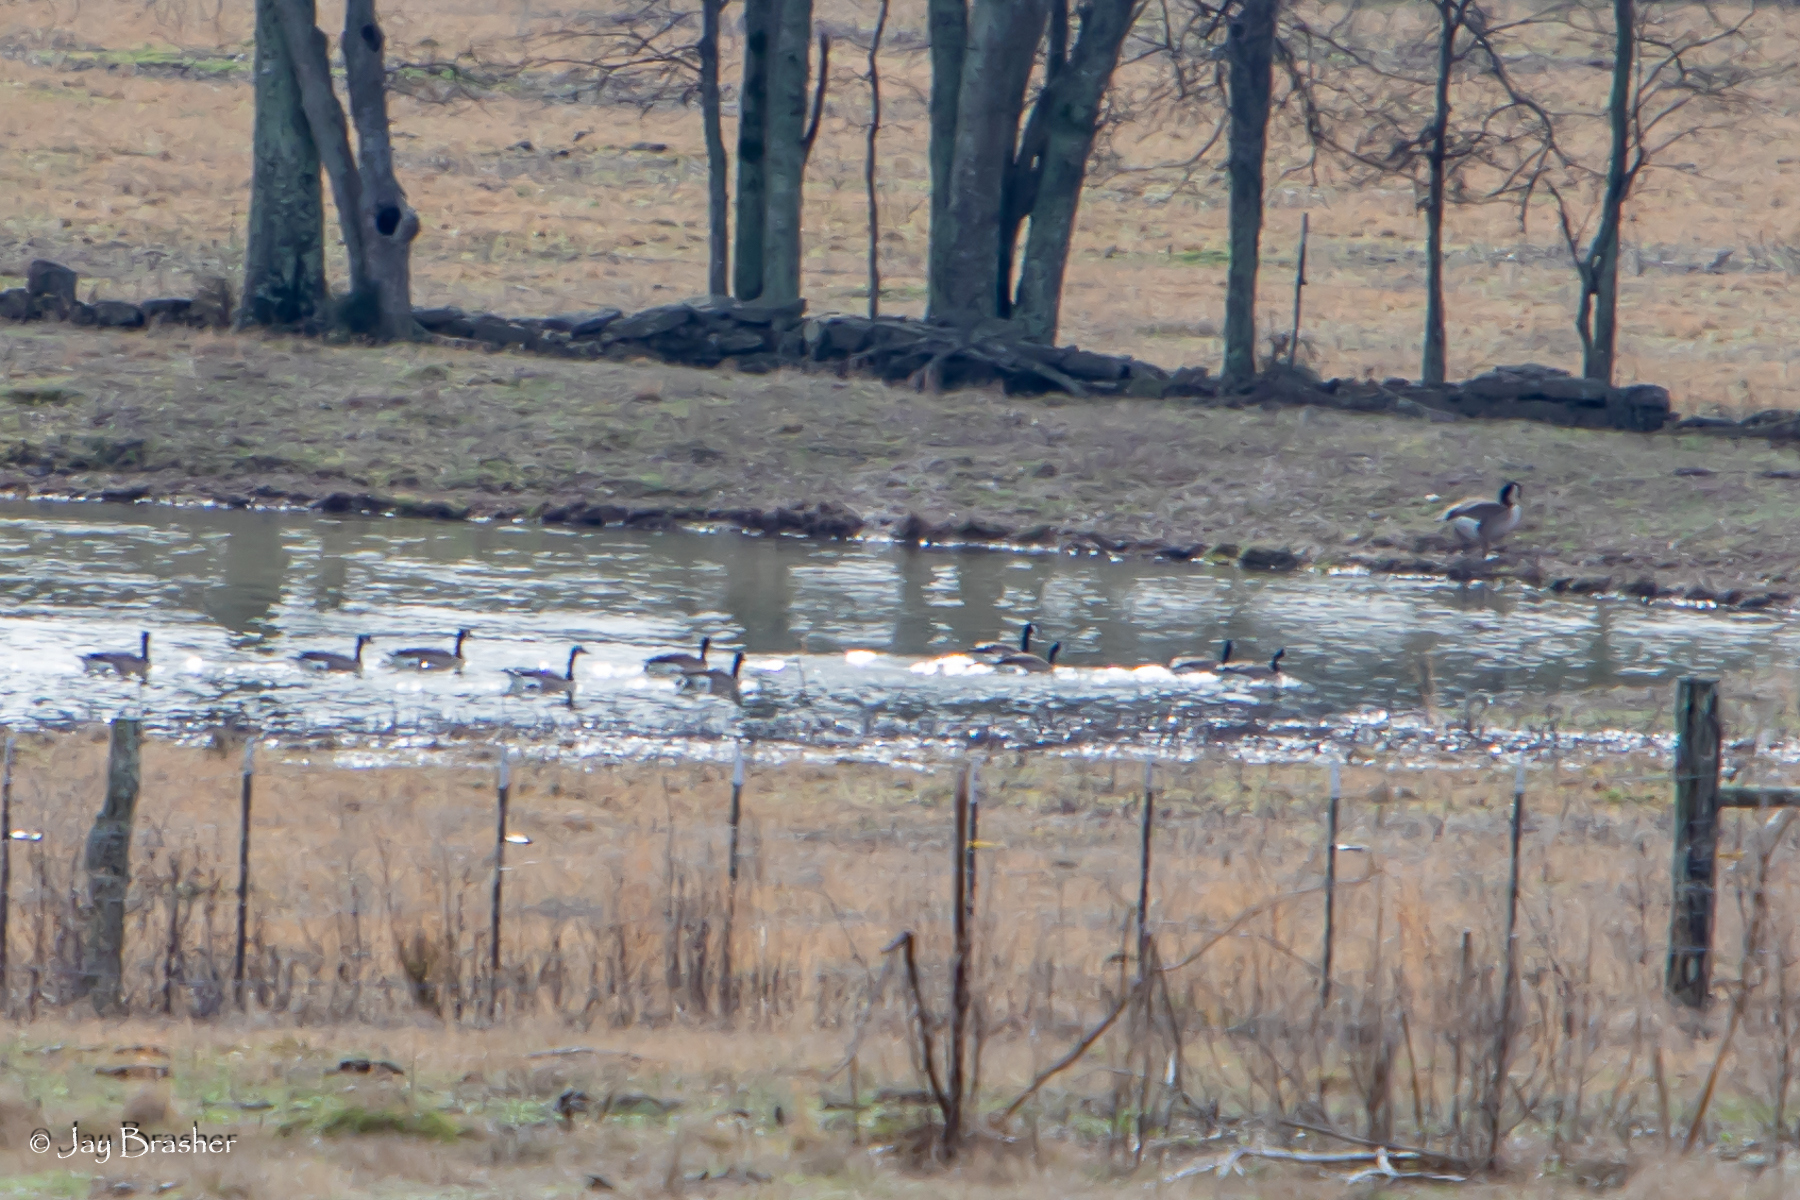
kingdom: Animalia
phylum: Chordata
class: Aves
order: Anseriformes
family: Anatidae
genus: Branta
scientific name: Branta canadensis
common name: Canada goose
